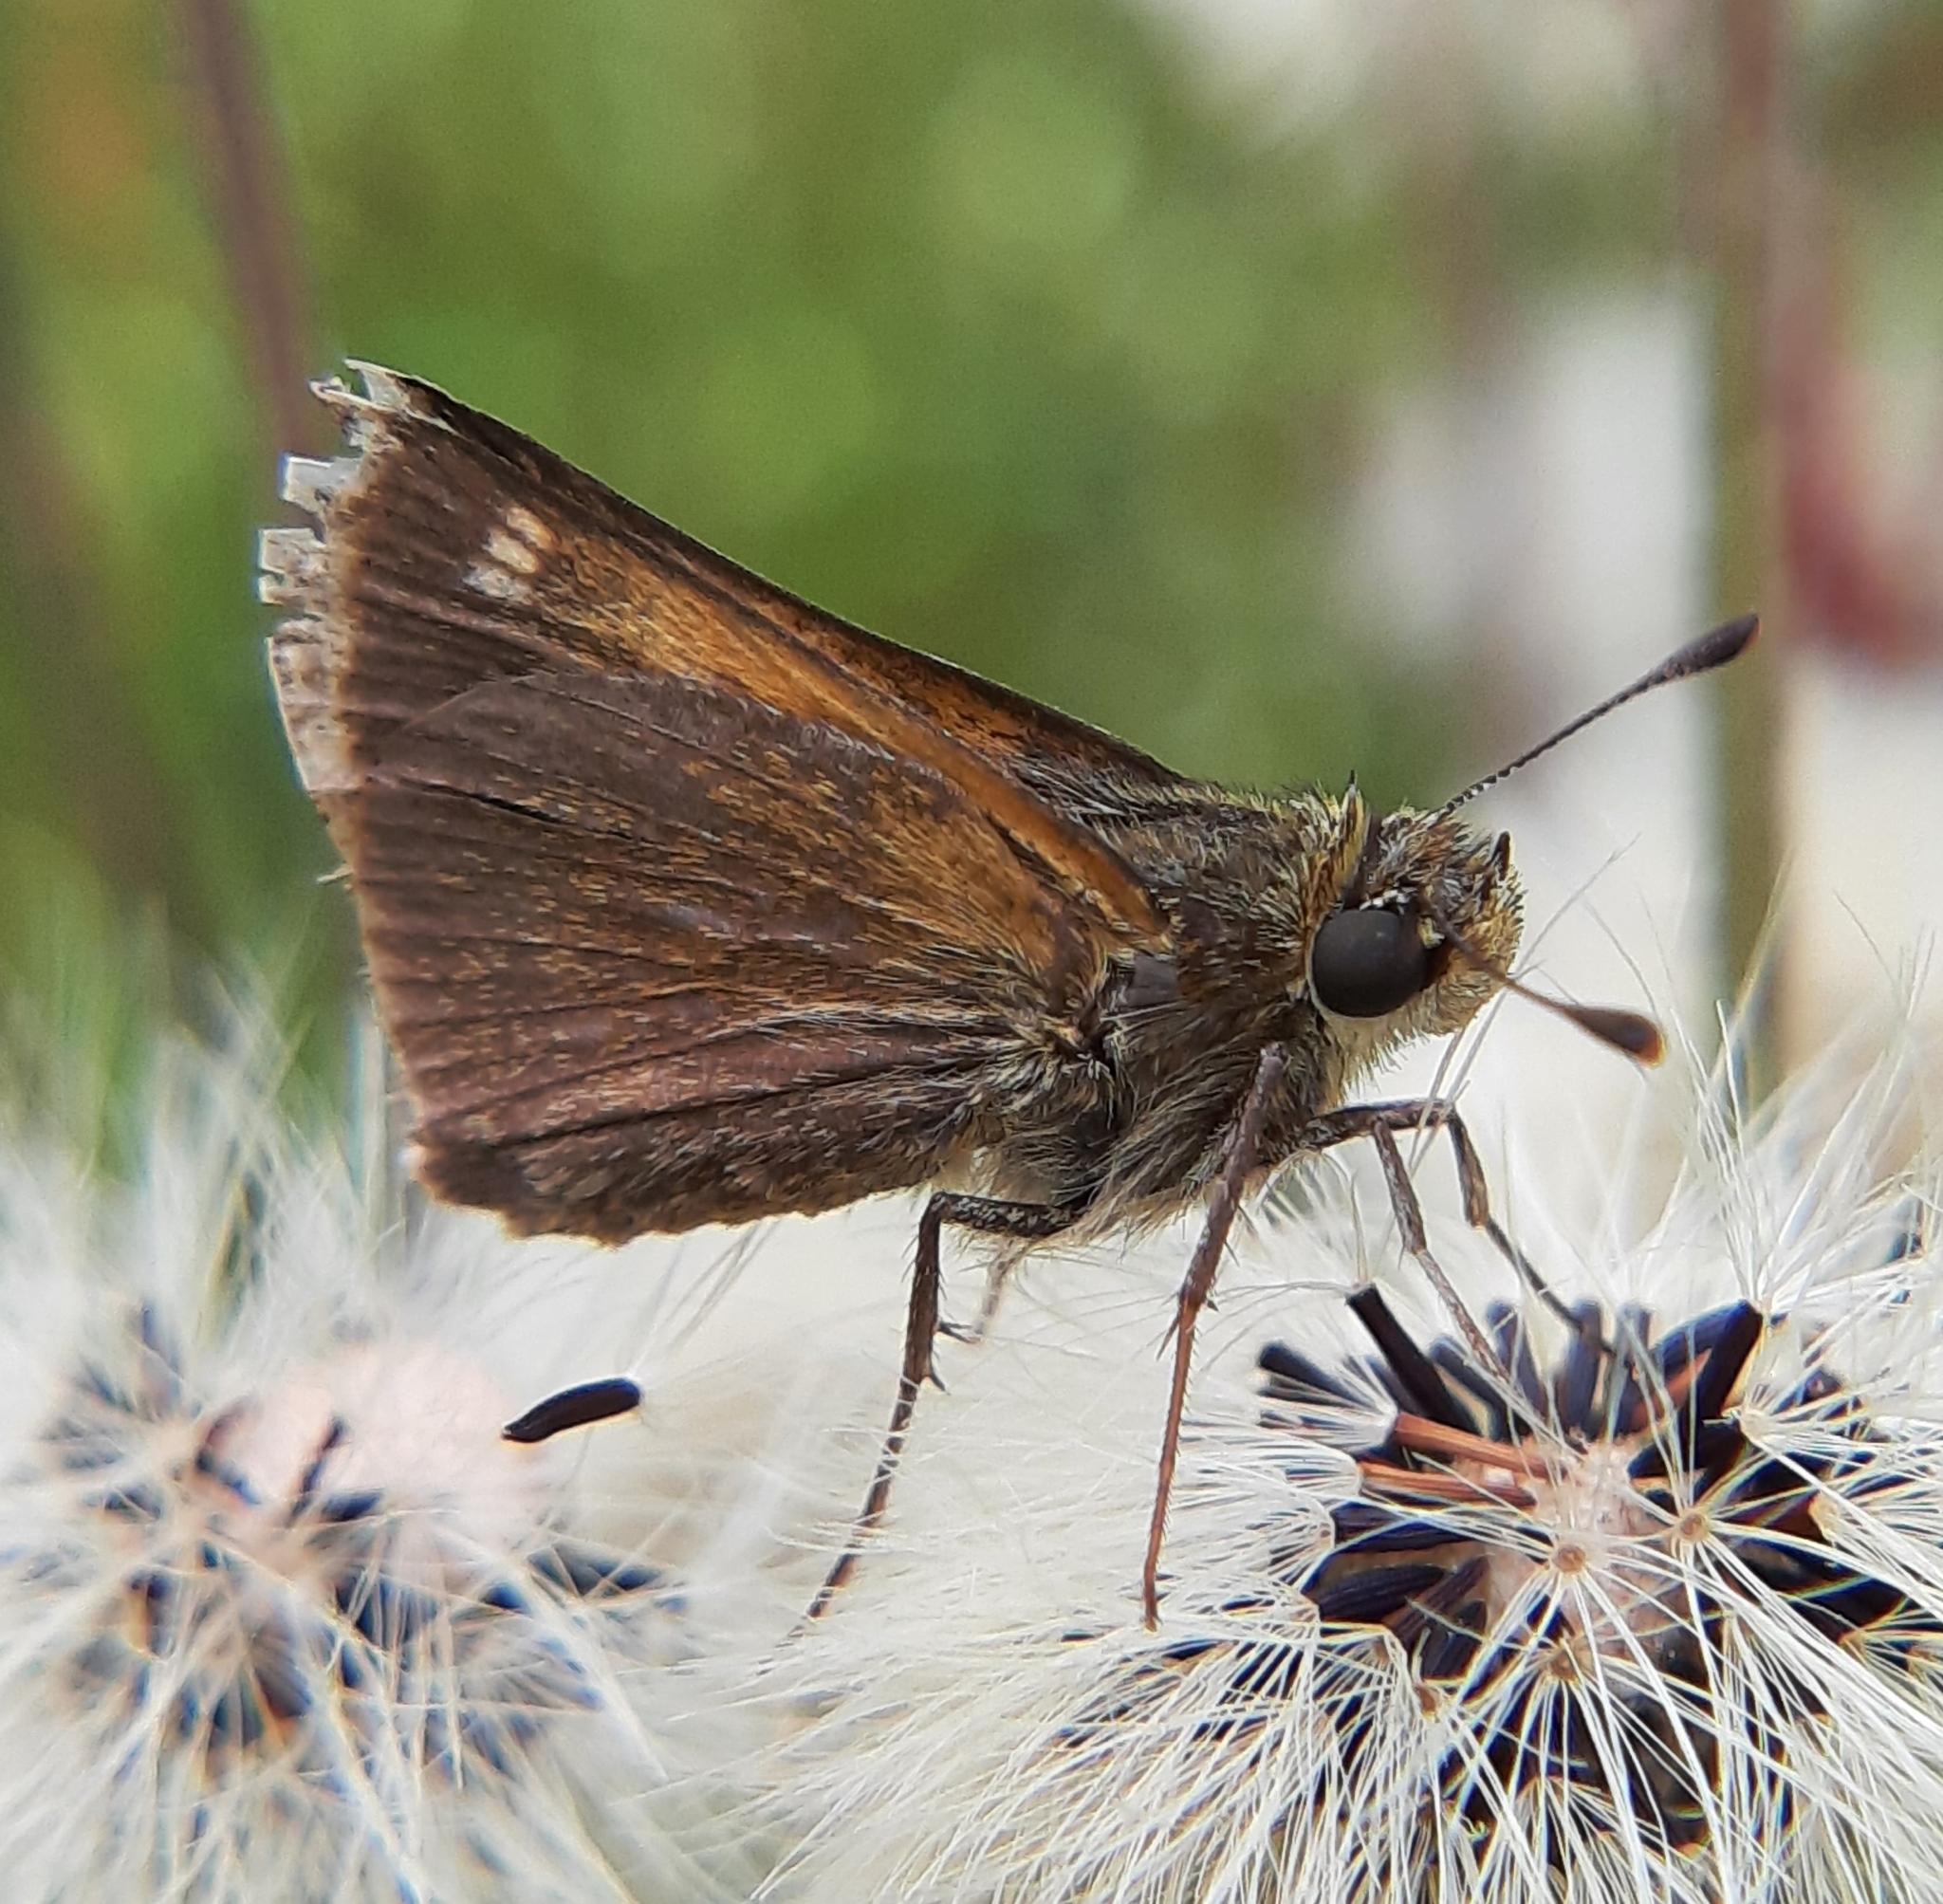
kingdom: Animalia
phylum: Arthropoda
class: Insecta
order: Lepidoptera
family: Hesperiidae
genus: Polites
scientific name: Polites themistocles
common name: Tawny-edged skipper
